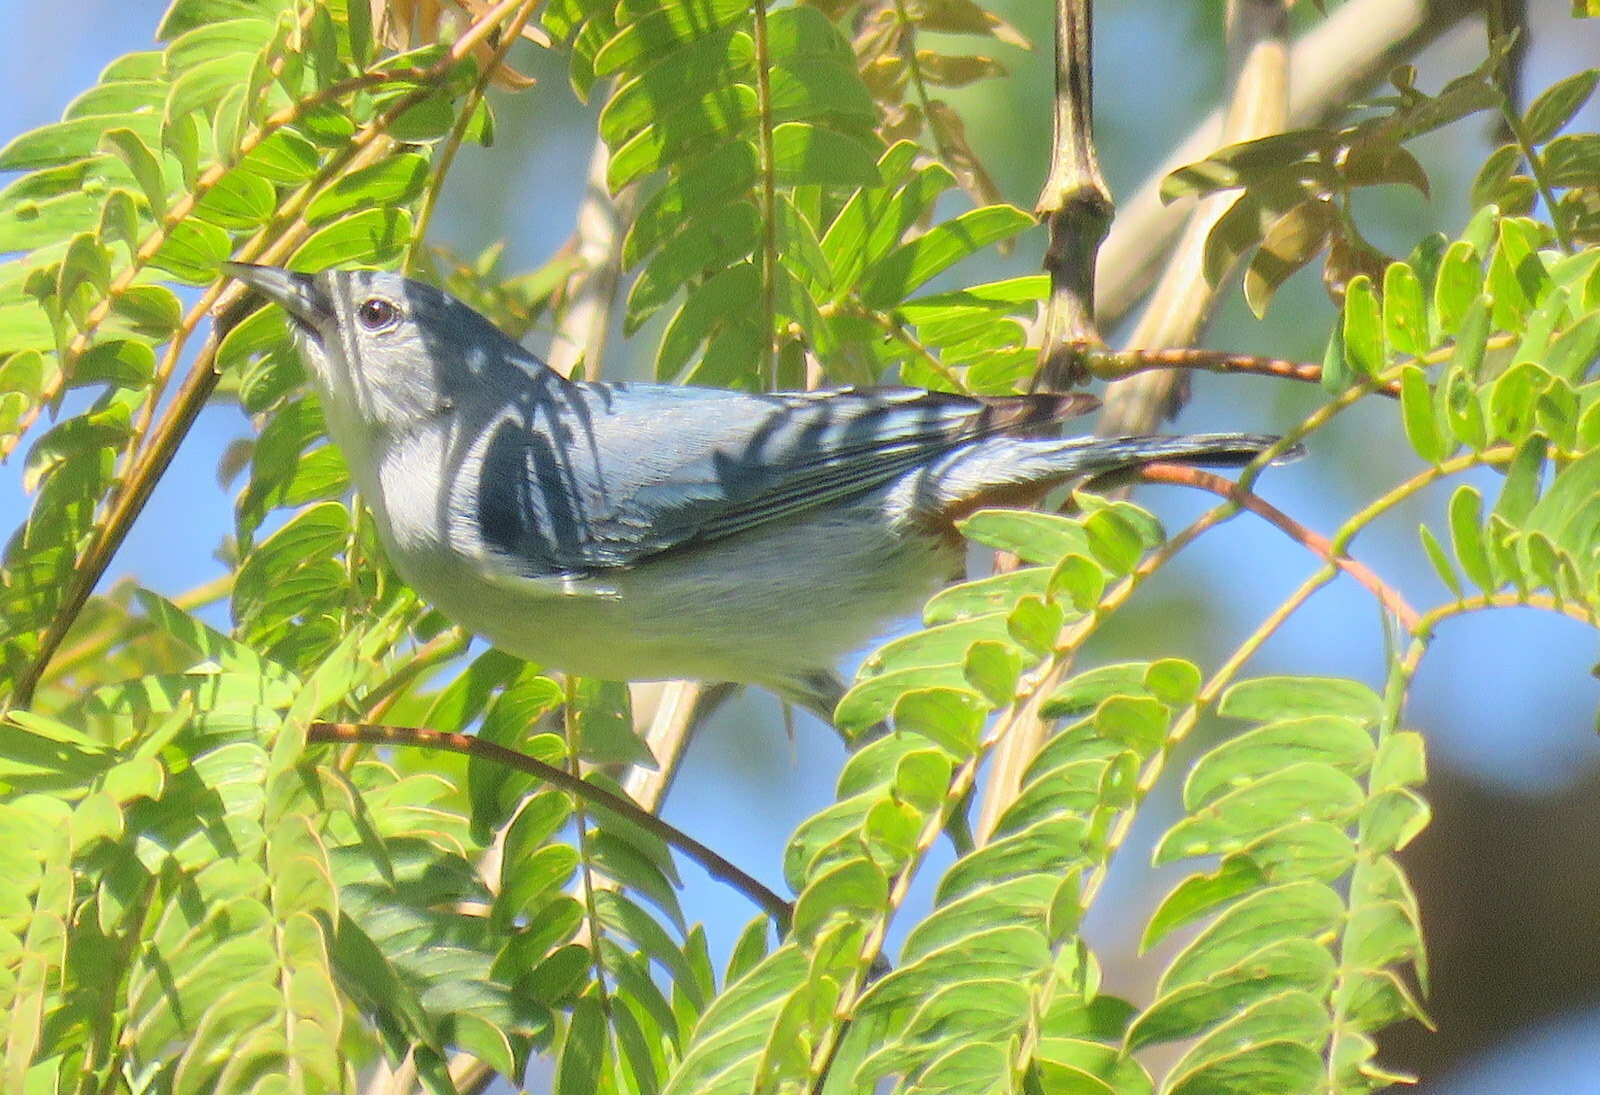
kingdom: Animalia
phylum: Chordata
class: Aves
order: Passeriformes
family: Thraupidae
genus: Conirostrum
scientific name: Conirostrum speciosum
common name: Chestnut-vented conebill
